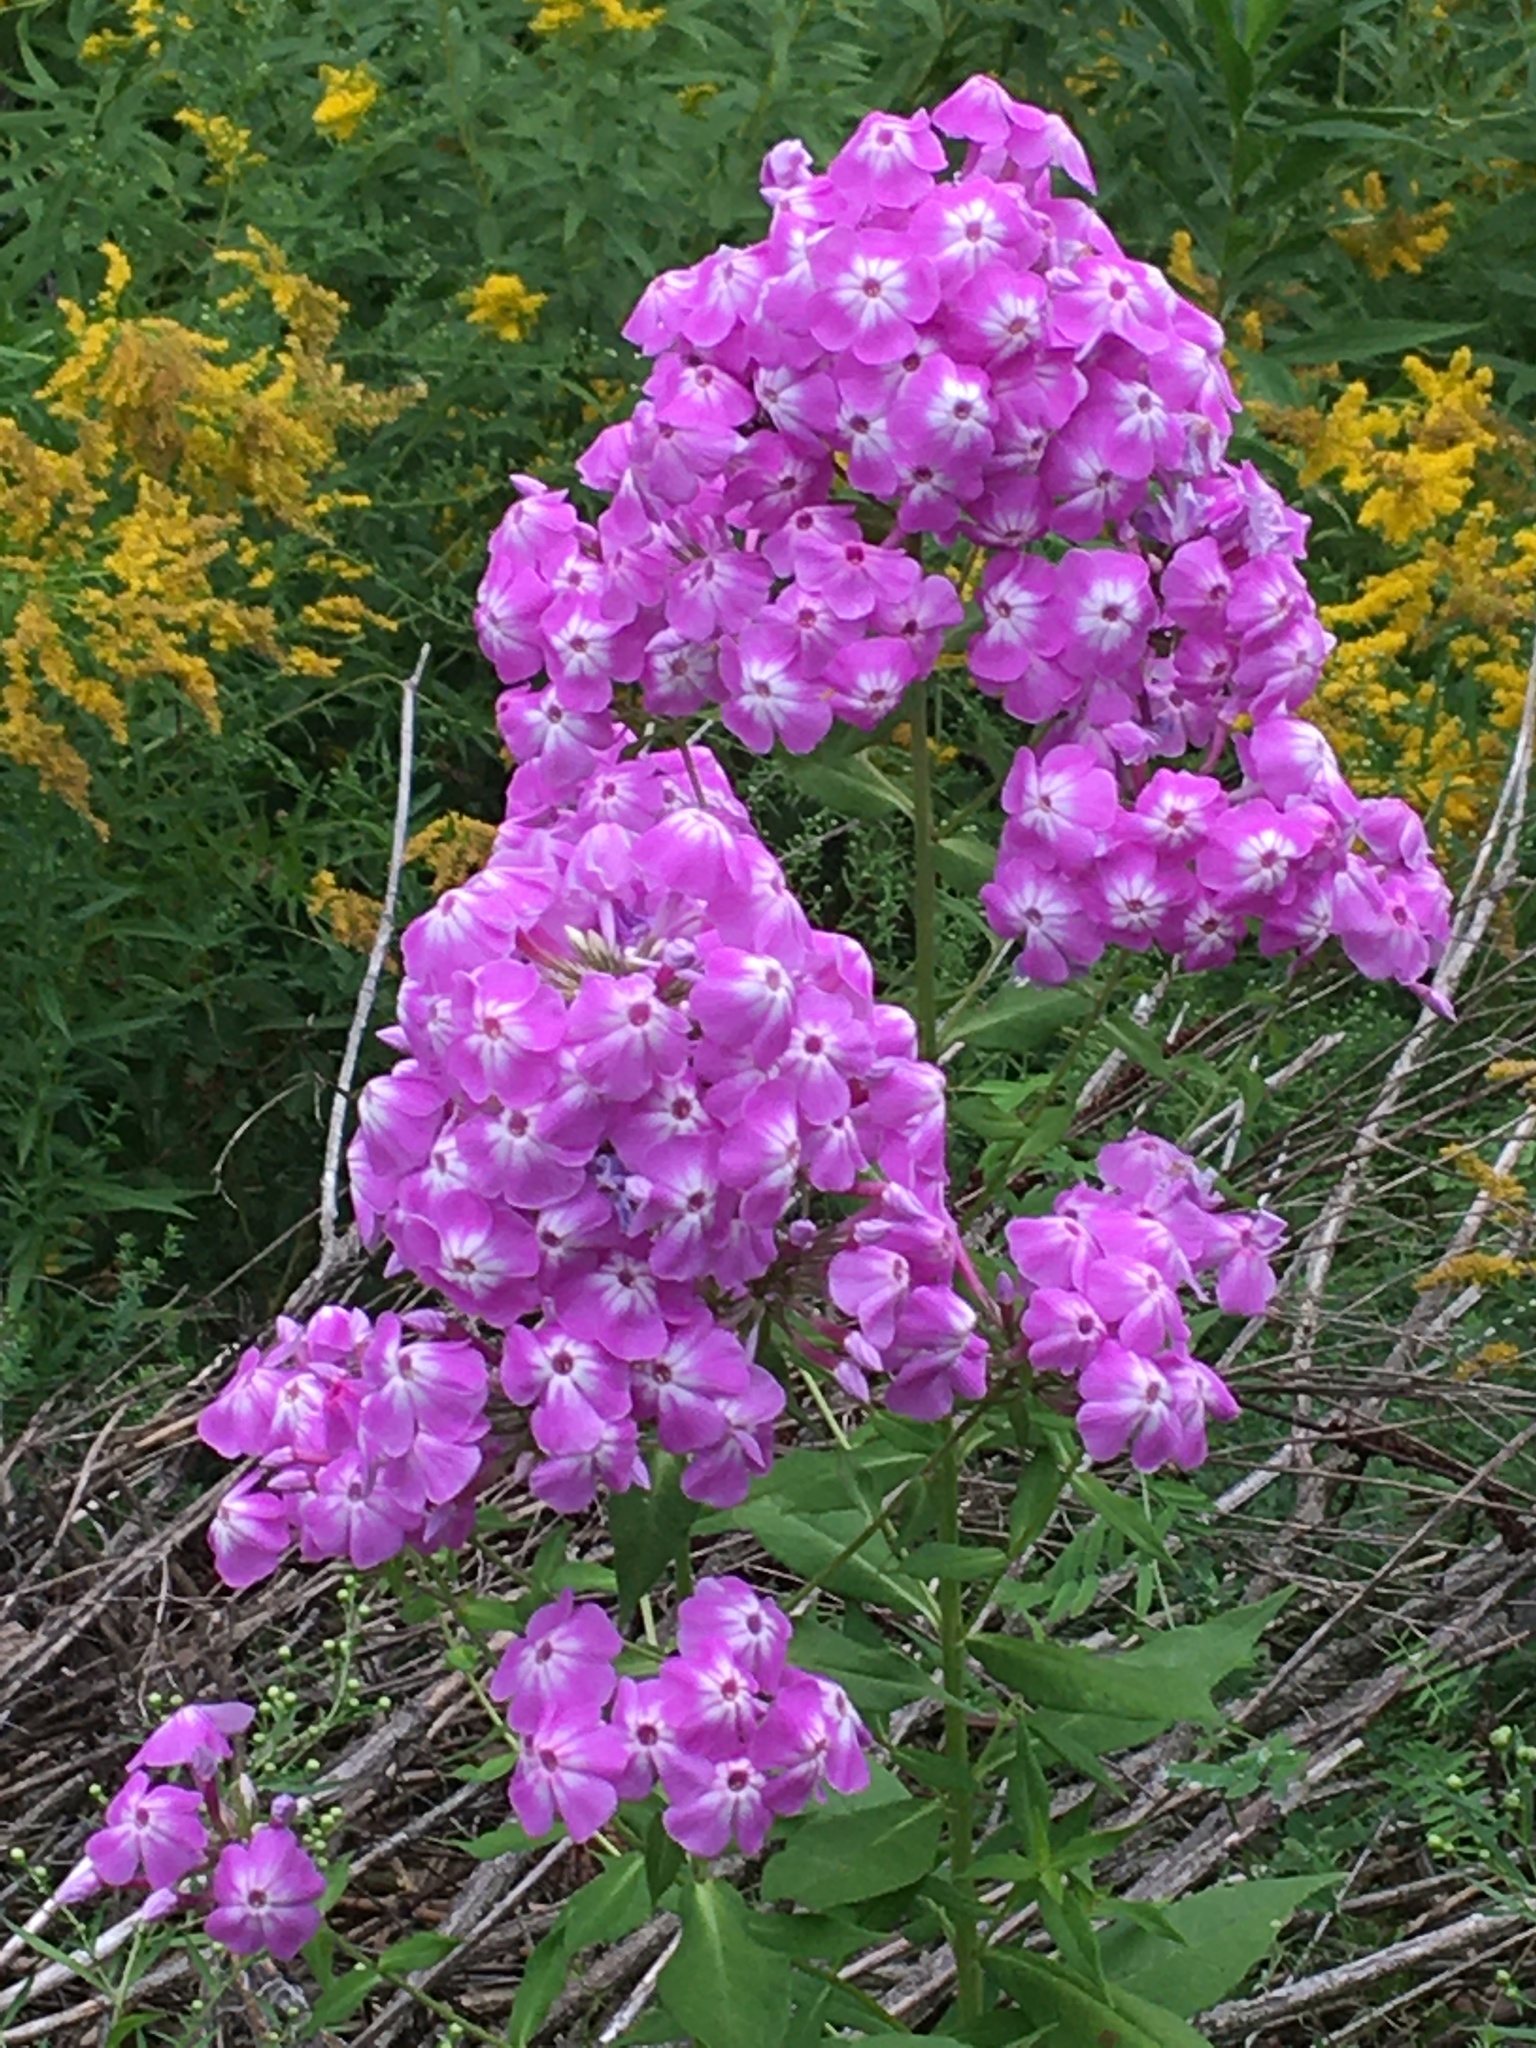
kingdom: Plantae
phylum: Tracheophyta
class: Magnoliopsida
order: Ericales
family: Polemoniaceae
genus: Phlox
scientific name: Phlox paniculata
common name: Fall phlox
